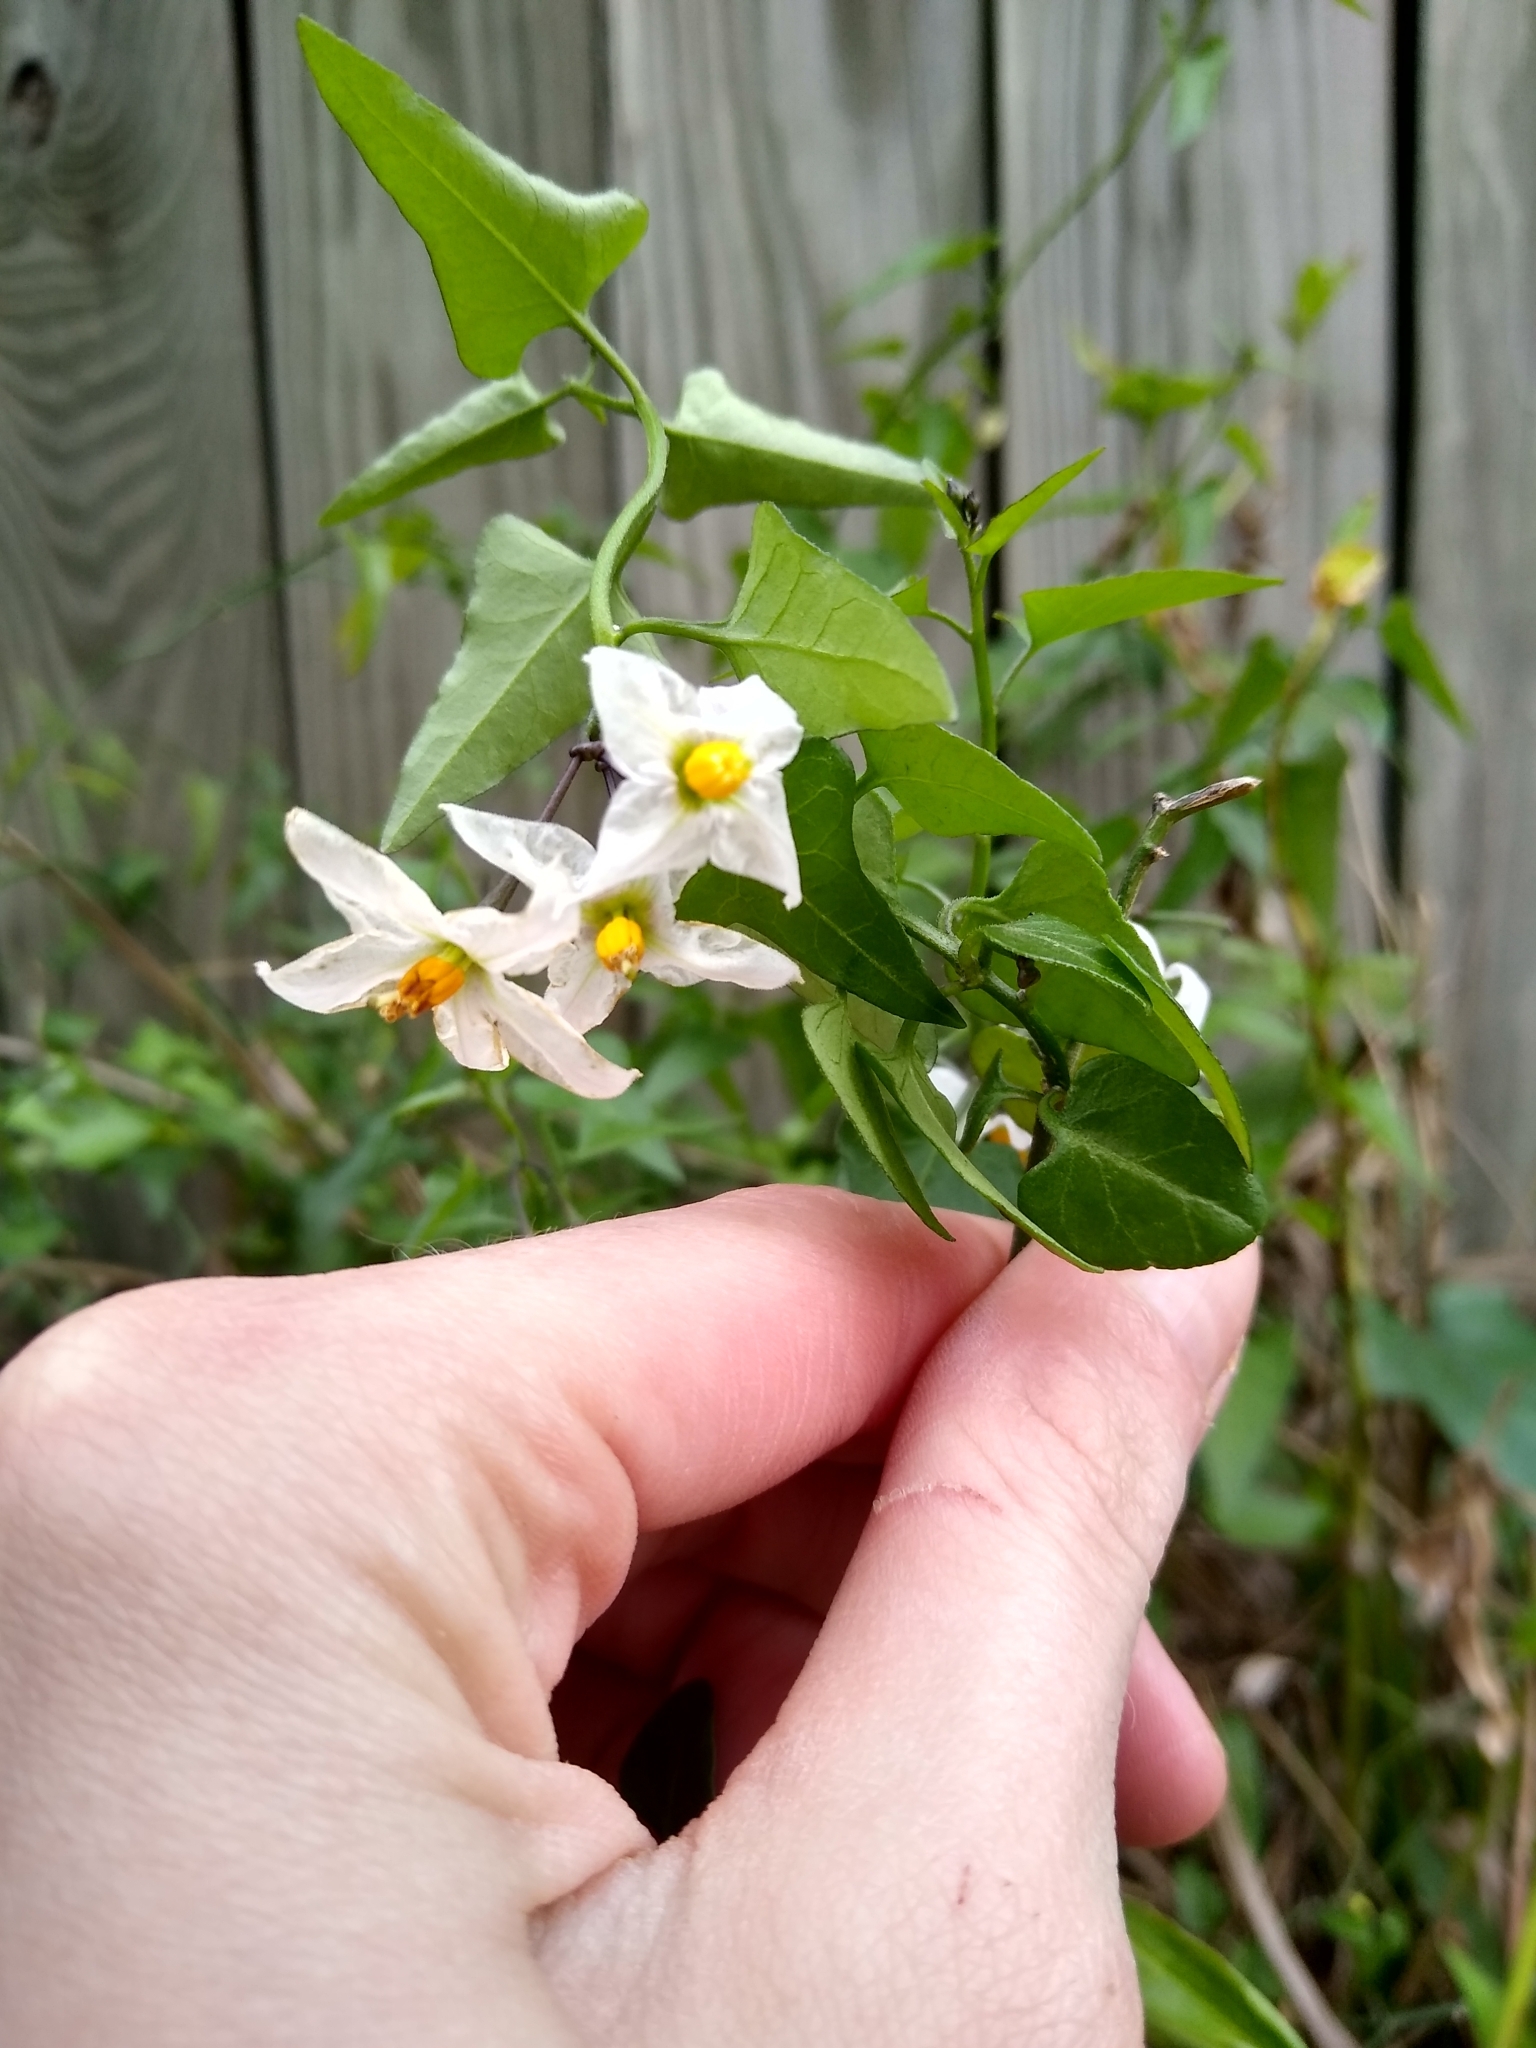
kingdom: Plantae
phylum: Tracheophyta
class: Magnoliopsida
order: Solanales
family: Solanaceae
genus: Solanum
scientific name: Solanum triquetrum
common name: Texas nightshade
